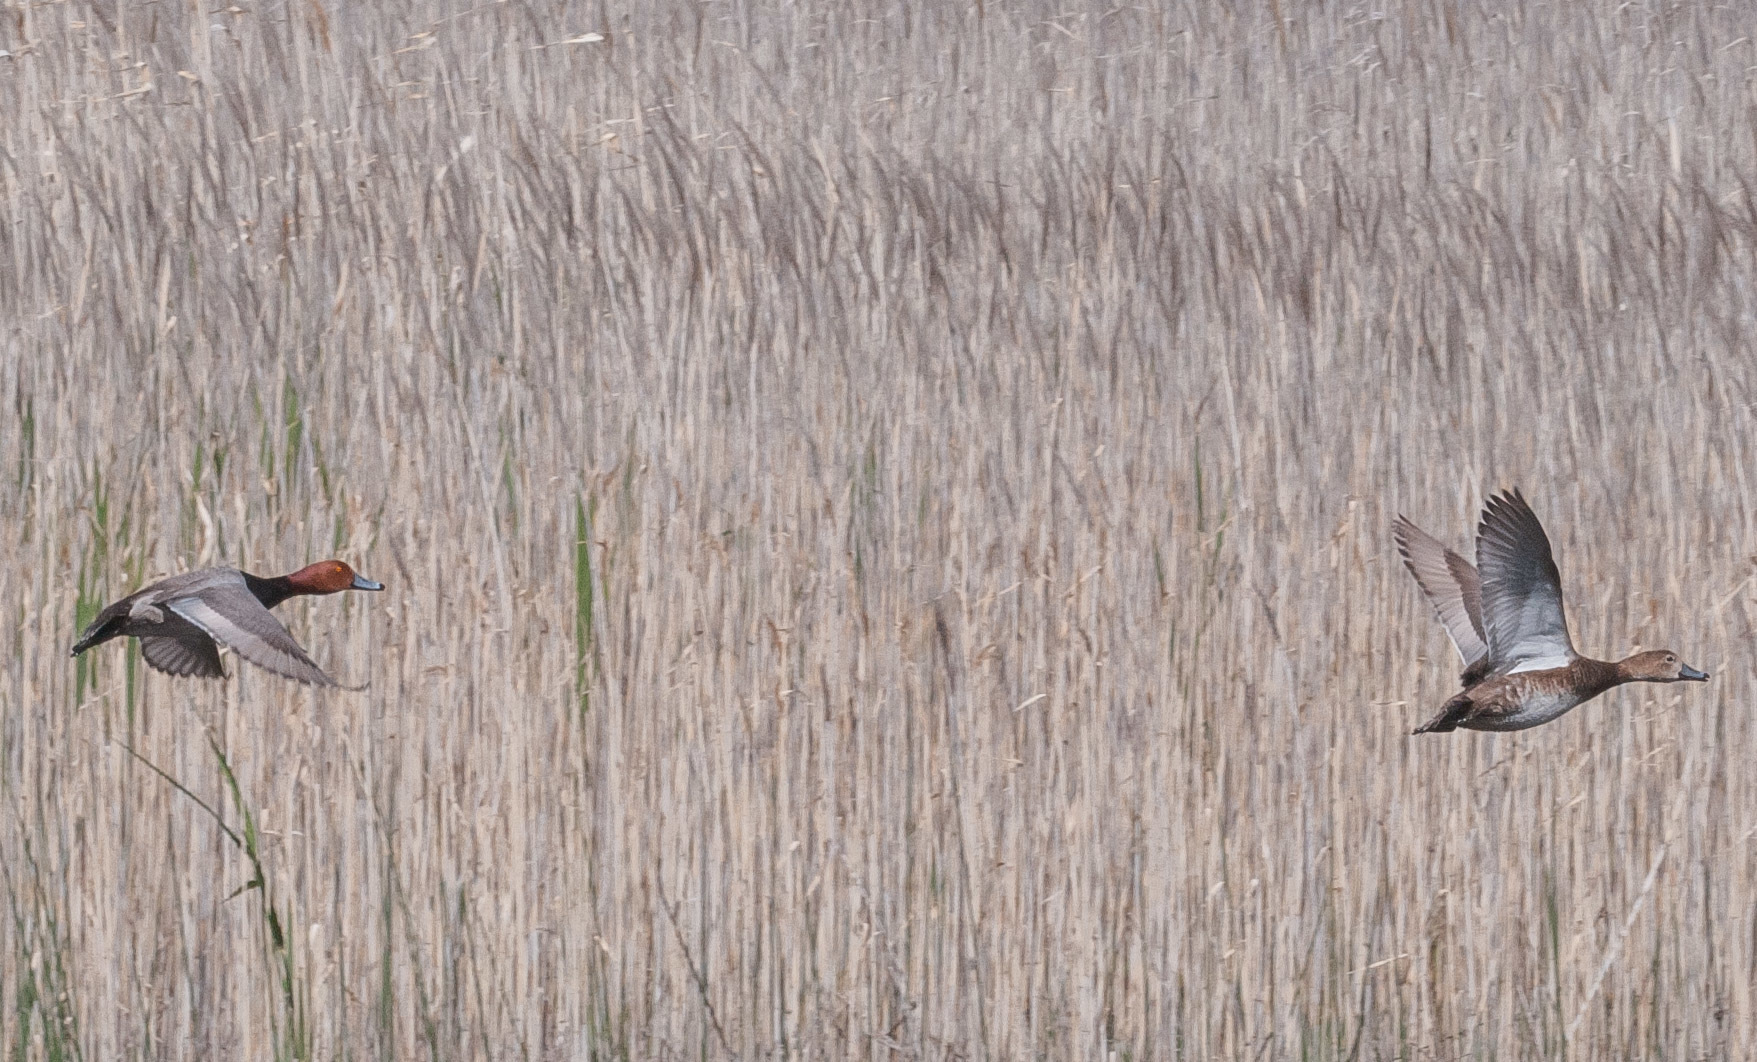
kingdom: Animalia
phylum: Chordata
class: Aves
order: Anseriformes
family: Anatidae
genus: Aythya
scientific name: Aythya americana
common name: Redhead
